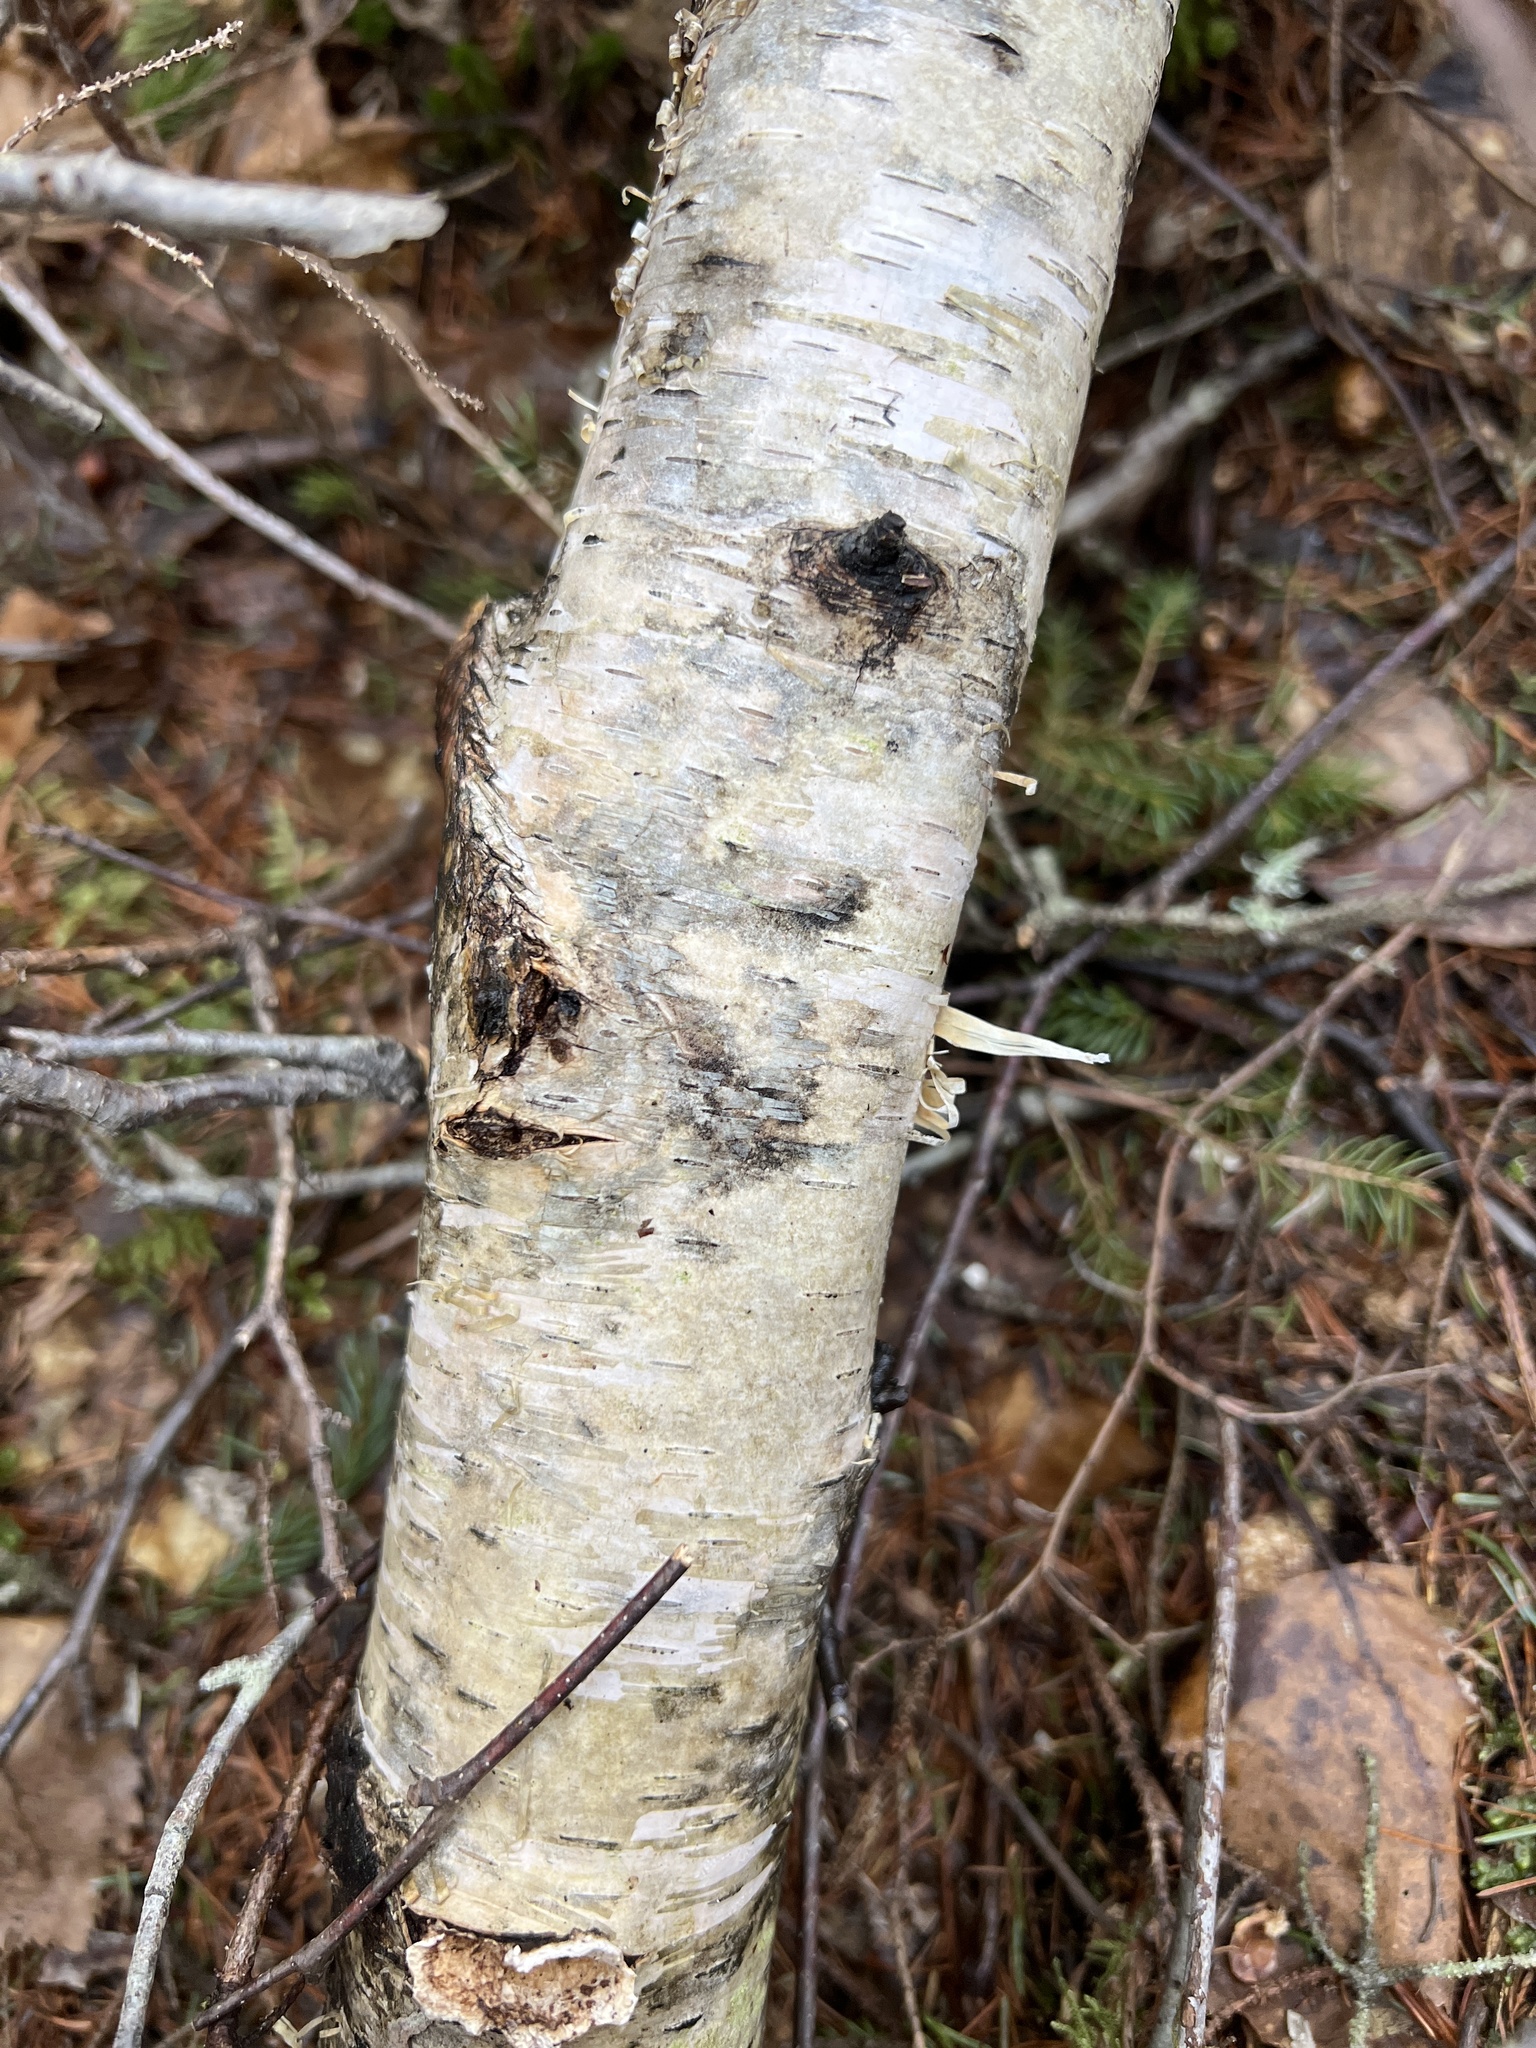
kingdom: Plantae
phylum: Tracheophyta
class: Magnoliopsida
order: Fagales
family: Betulaceae
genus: Betula
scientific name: Betula papyrifera
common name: Paper birch
